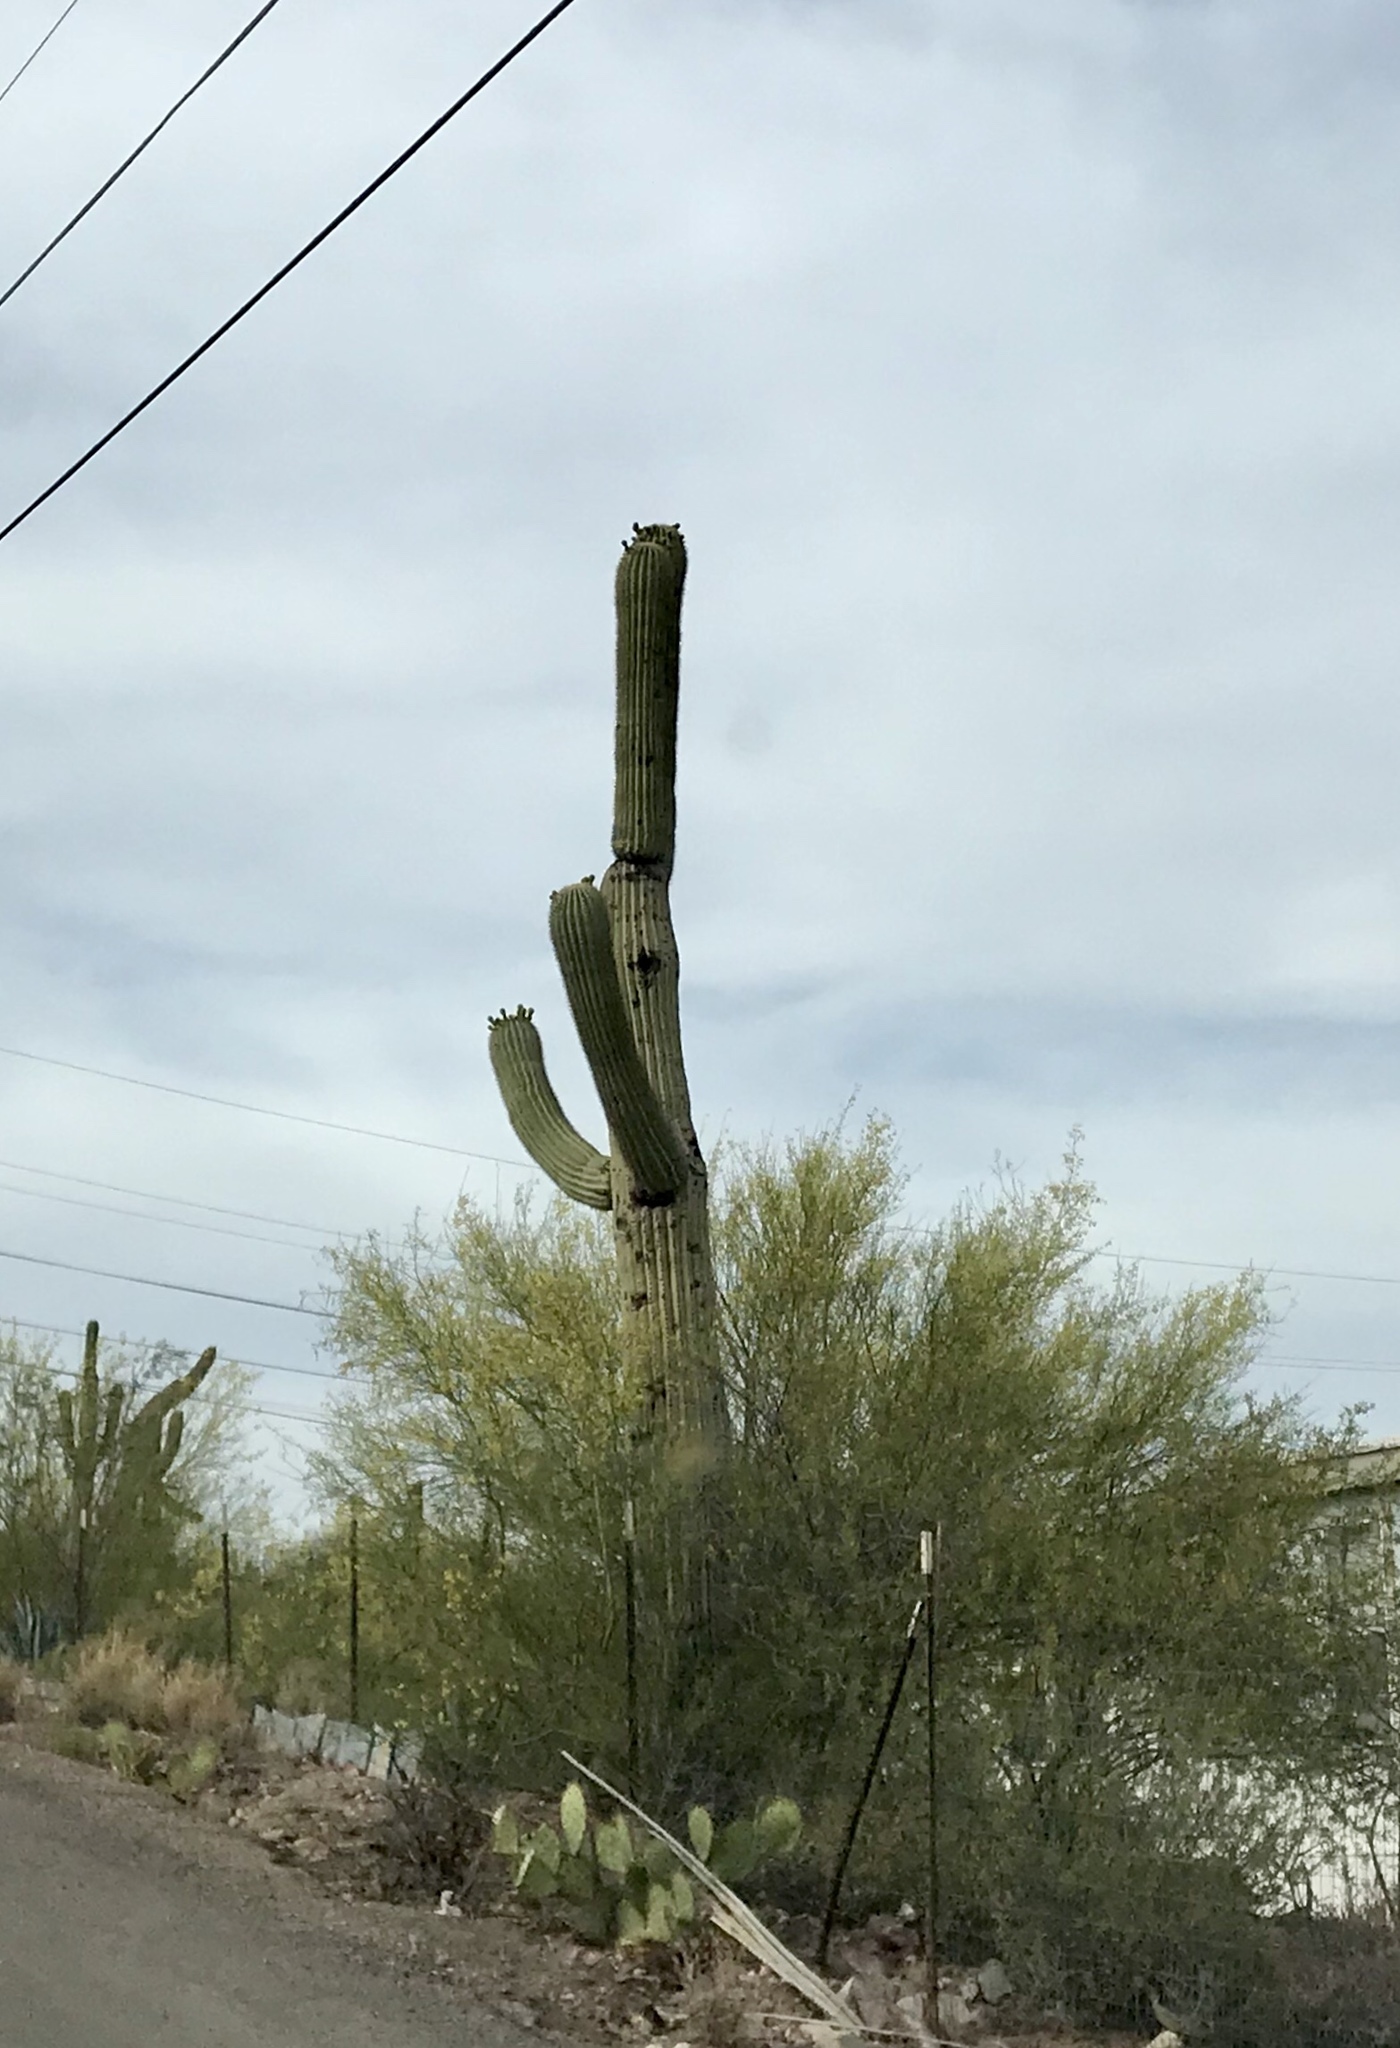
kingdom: Plantae
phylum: Tracheophyta
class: Magnoliopsida
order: Caryophyllales
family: Cactaceae
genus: Carnegiea
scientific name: Carnegiea gigantea
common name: Saguaro
